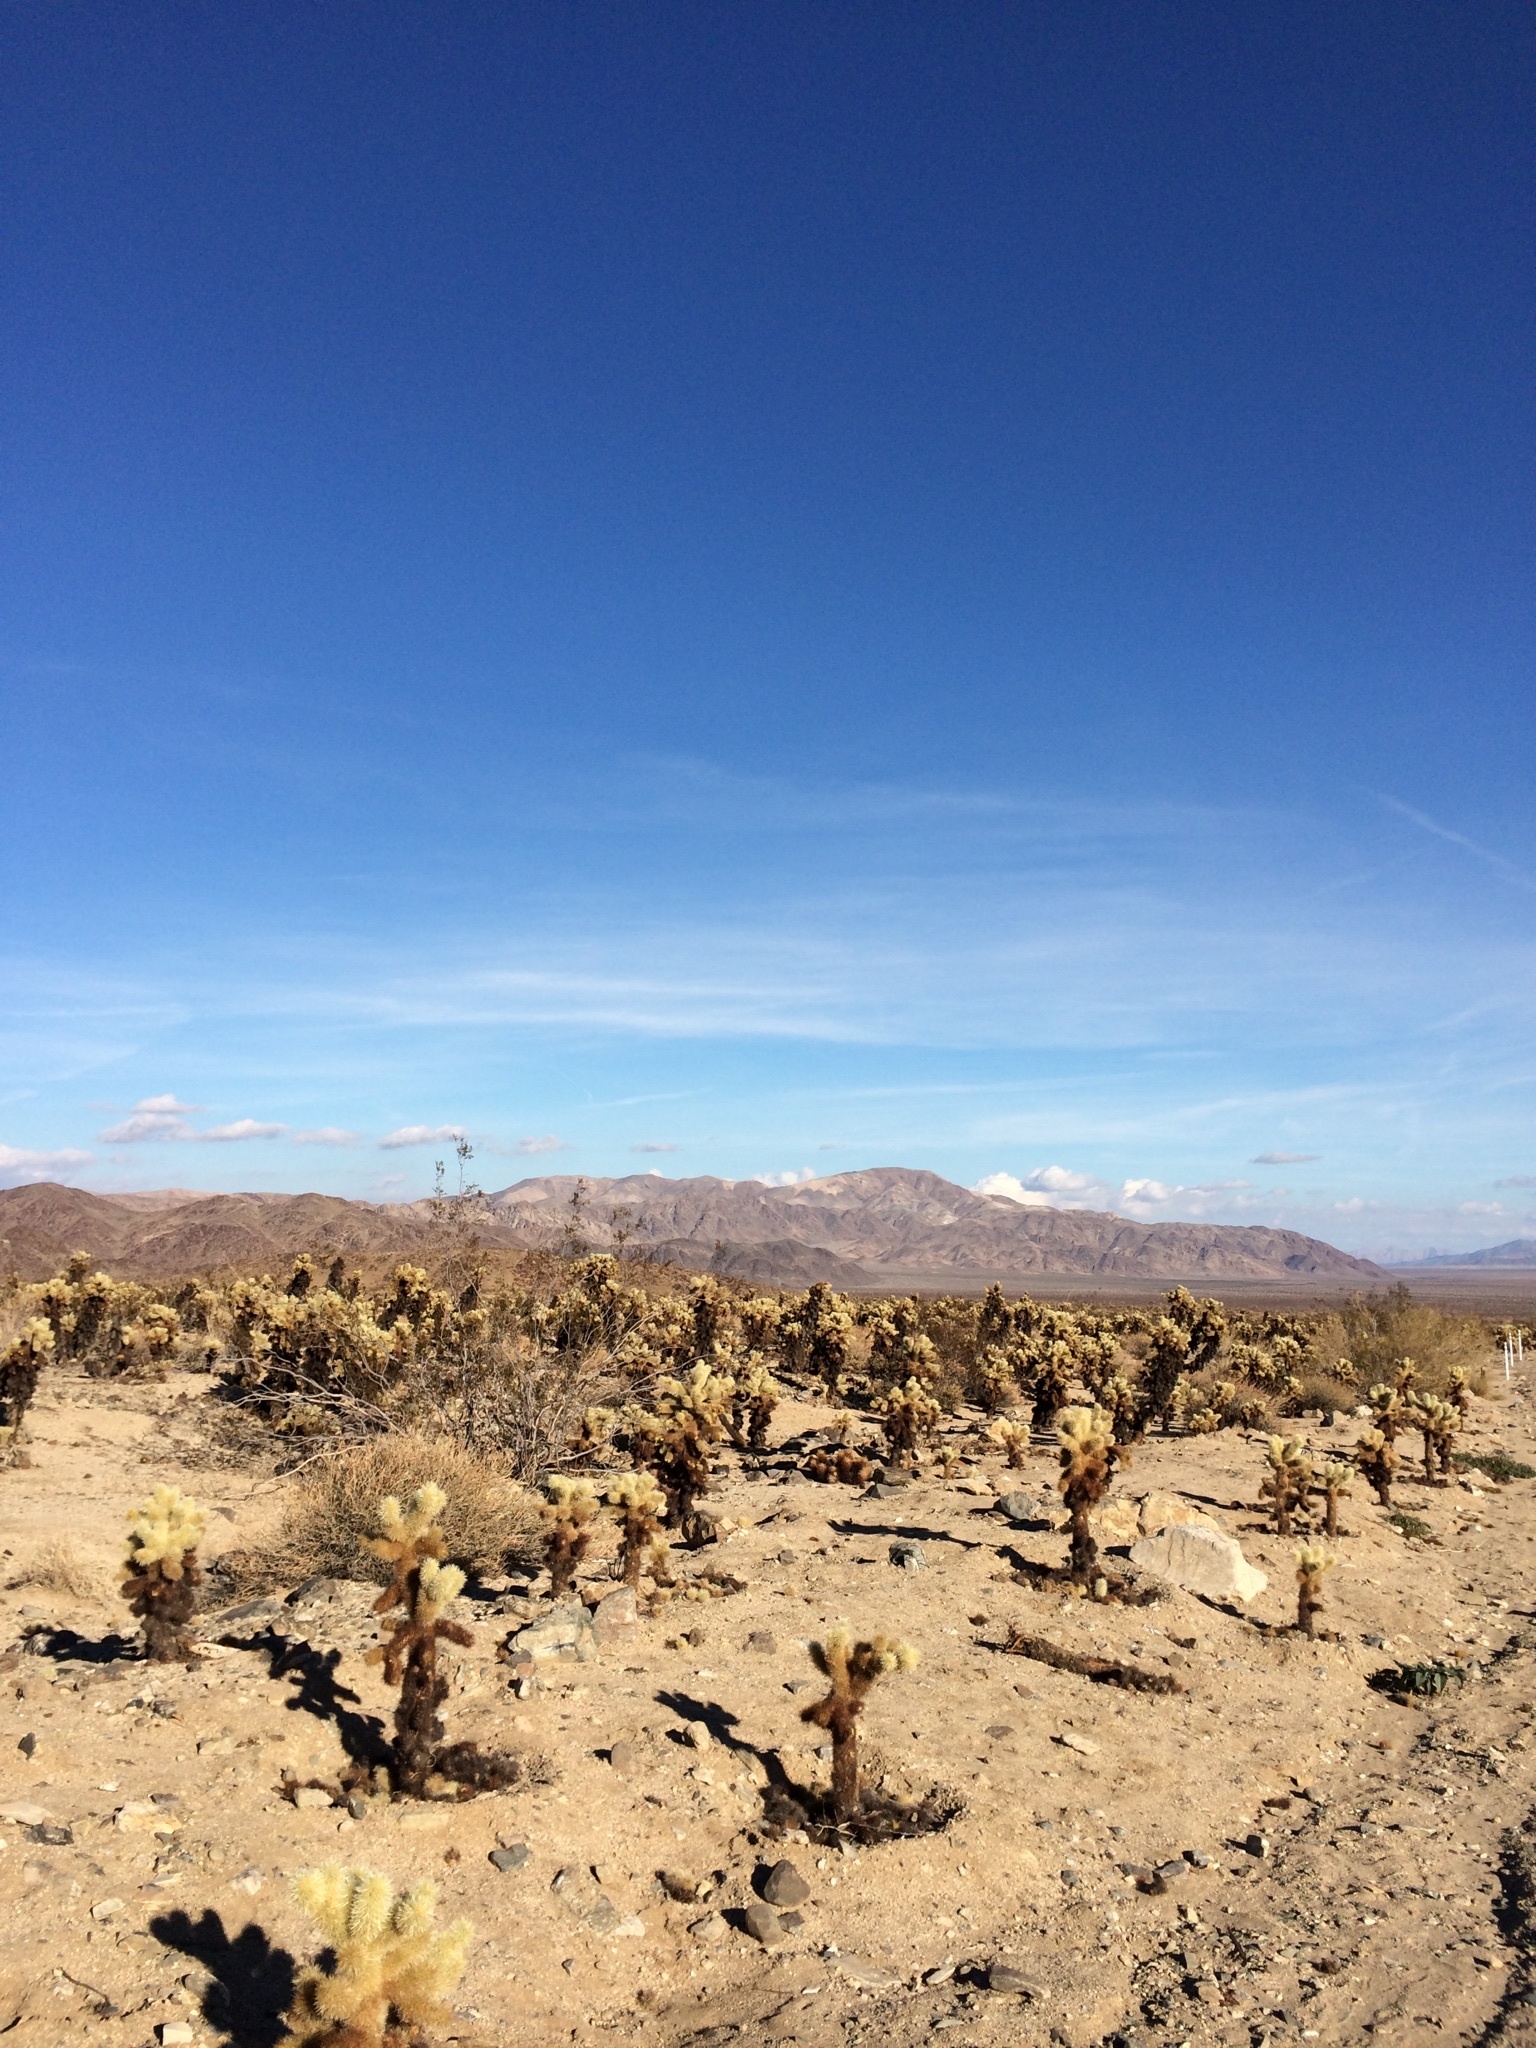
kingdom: Plantae
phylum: Tracheophyta
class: Magnoliopsida
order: Caryophyllales
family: Cactaceae
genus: Cylindropuntia
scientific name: Cylindropuntia fosbergii
